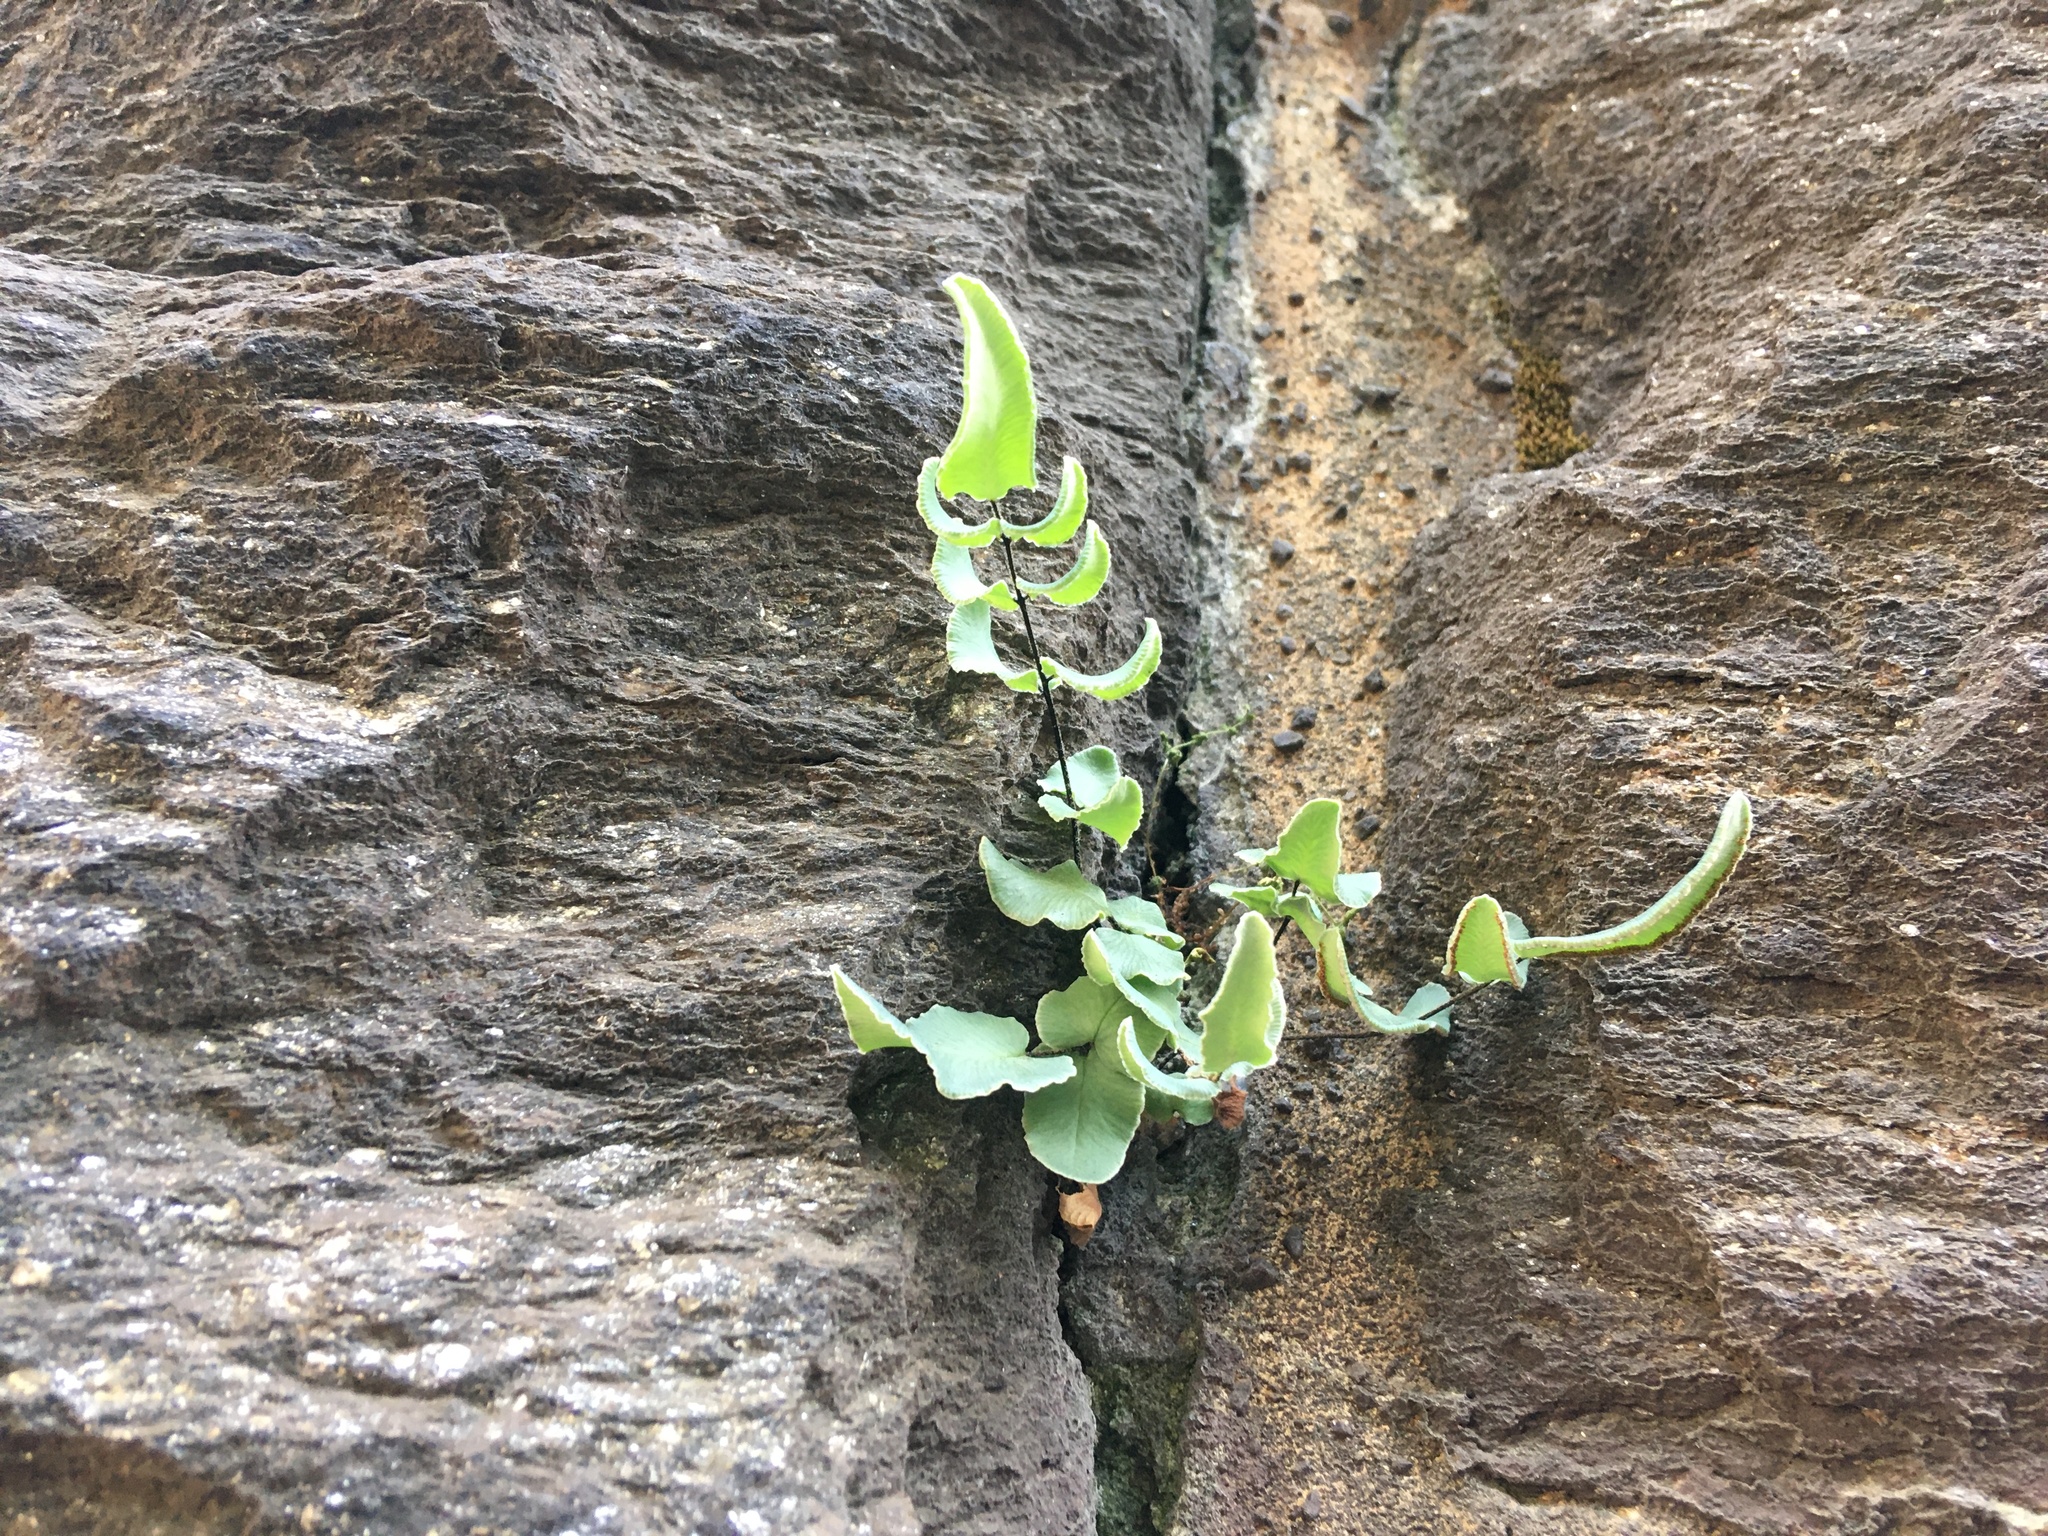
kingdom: Plantae
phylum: Tracheophyta
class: Polypodiopsida
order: Polypodiales
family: Pteridaceae
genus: Pellaea
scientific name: Pellaea atropurpurea
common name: Hairy cliffbrake
